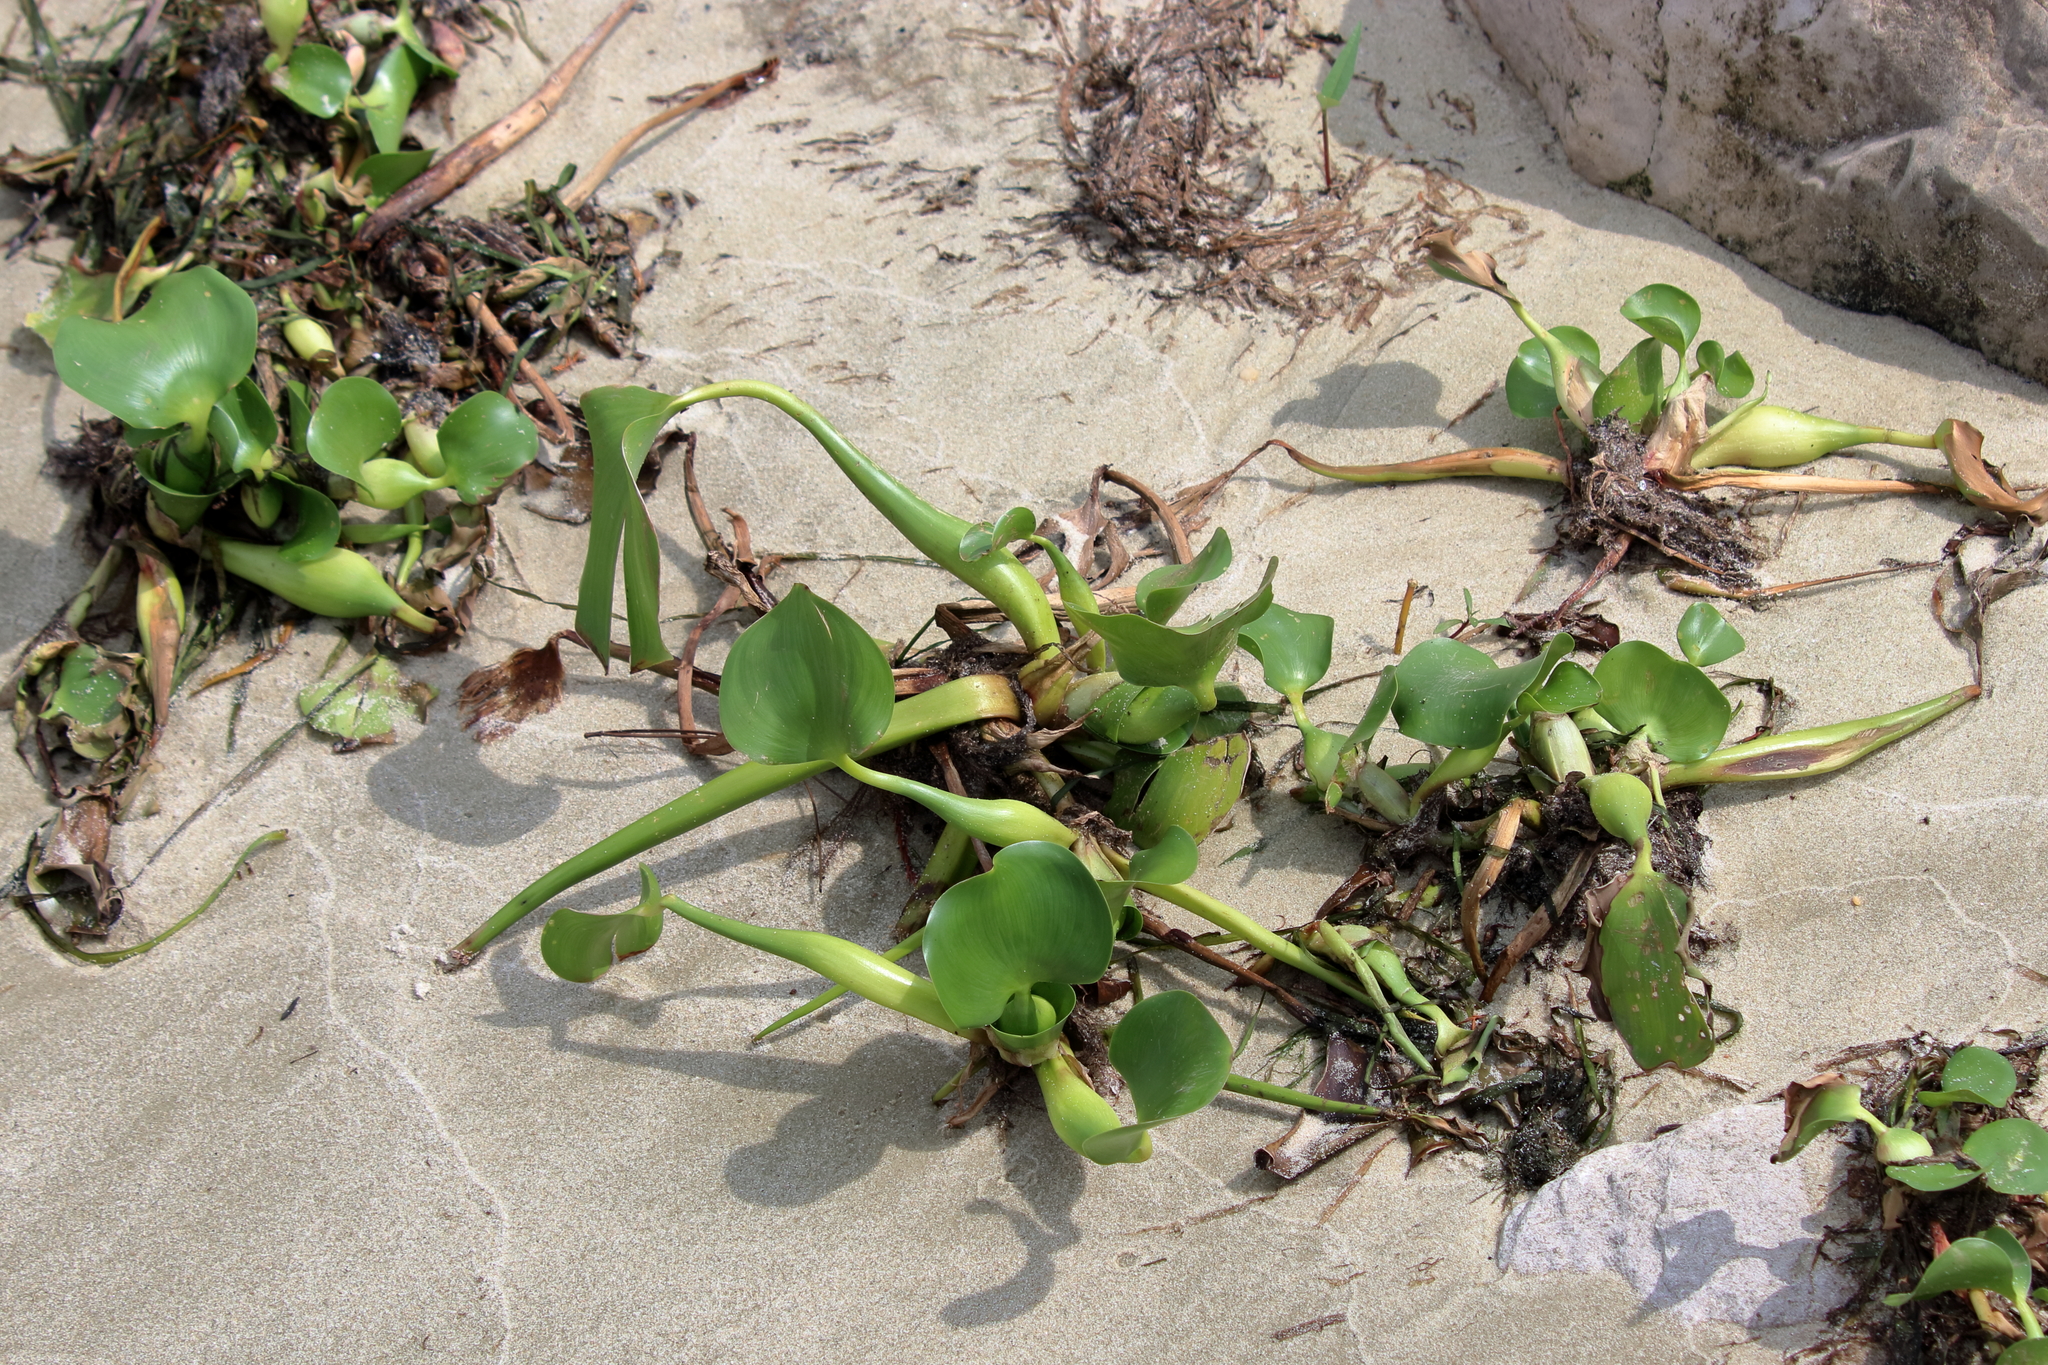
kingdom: Plantae
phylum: Tracheophyta
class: Liliopsida
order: Commelinales
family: Pontederiaceae
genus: Pontederia
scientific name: Pontederia crassipes
